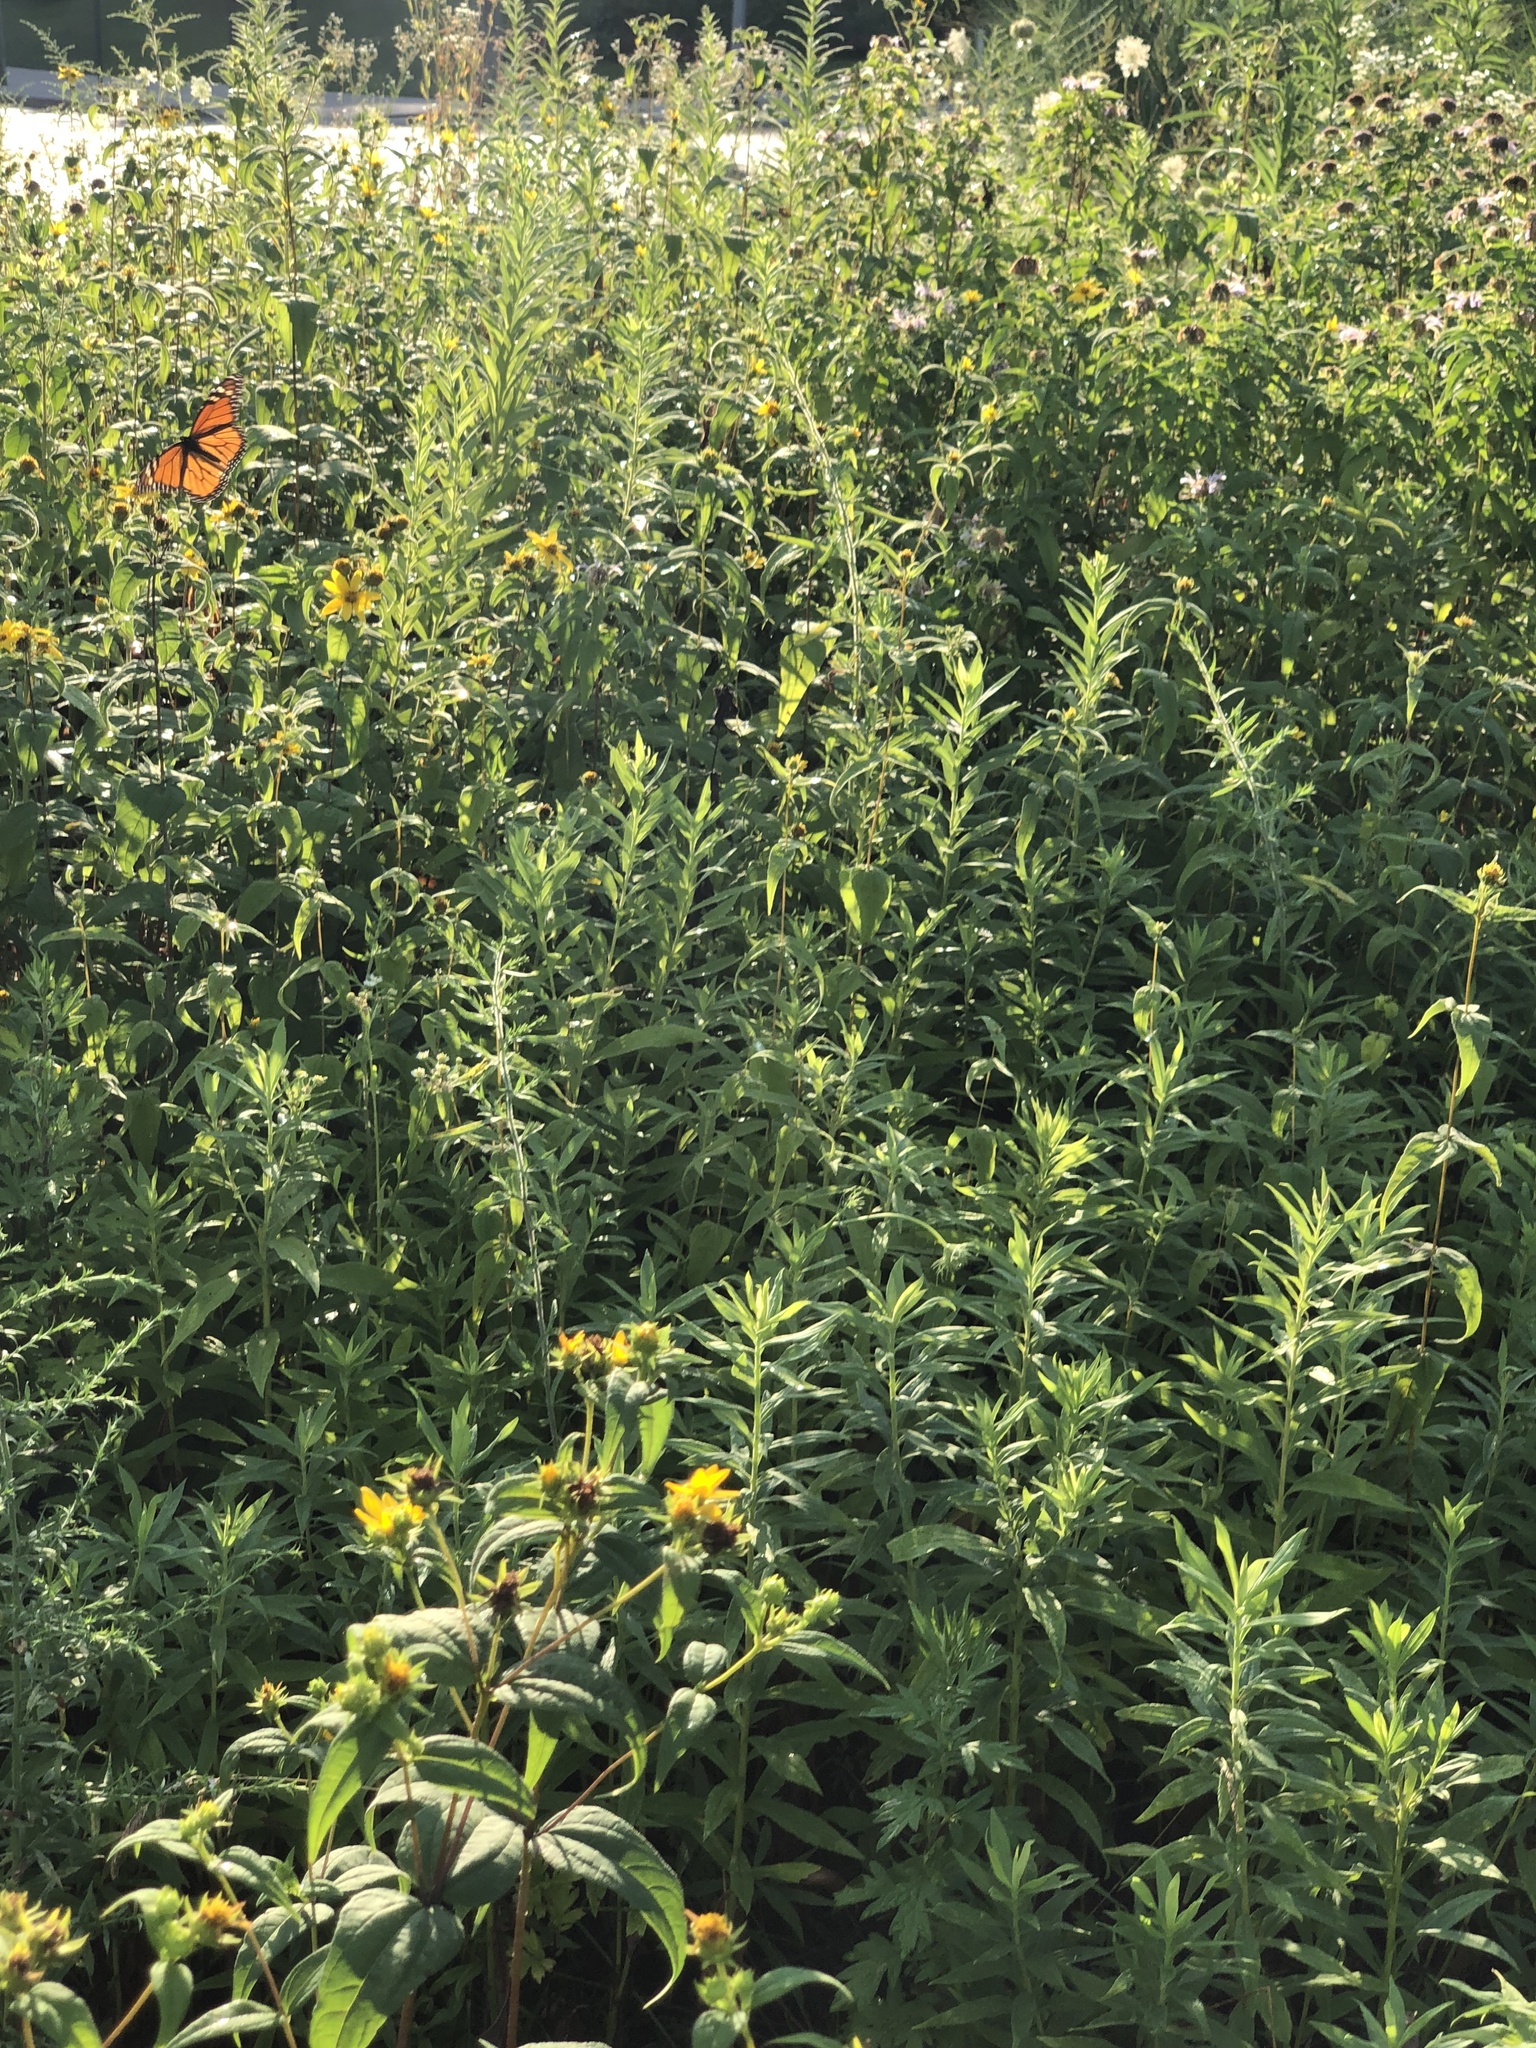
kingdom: Animalia
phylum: Arthropoda
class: Insecta
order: Lepidoptera
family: Nymphalidae
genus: Danaus
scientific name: Danaus plexippus
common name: Monarch
